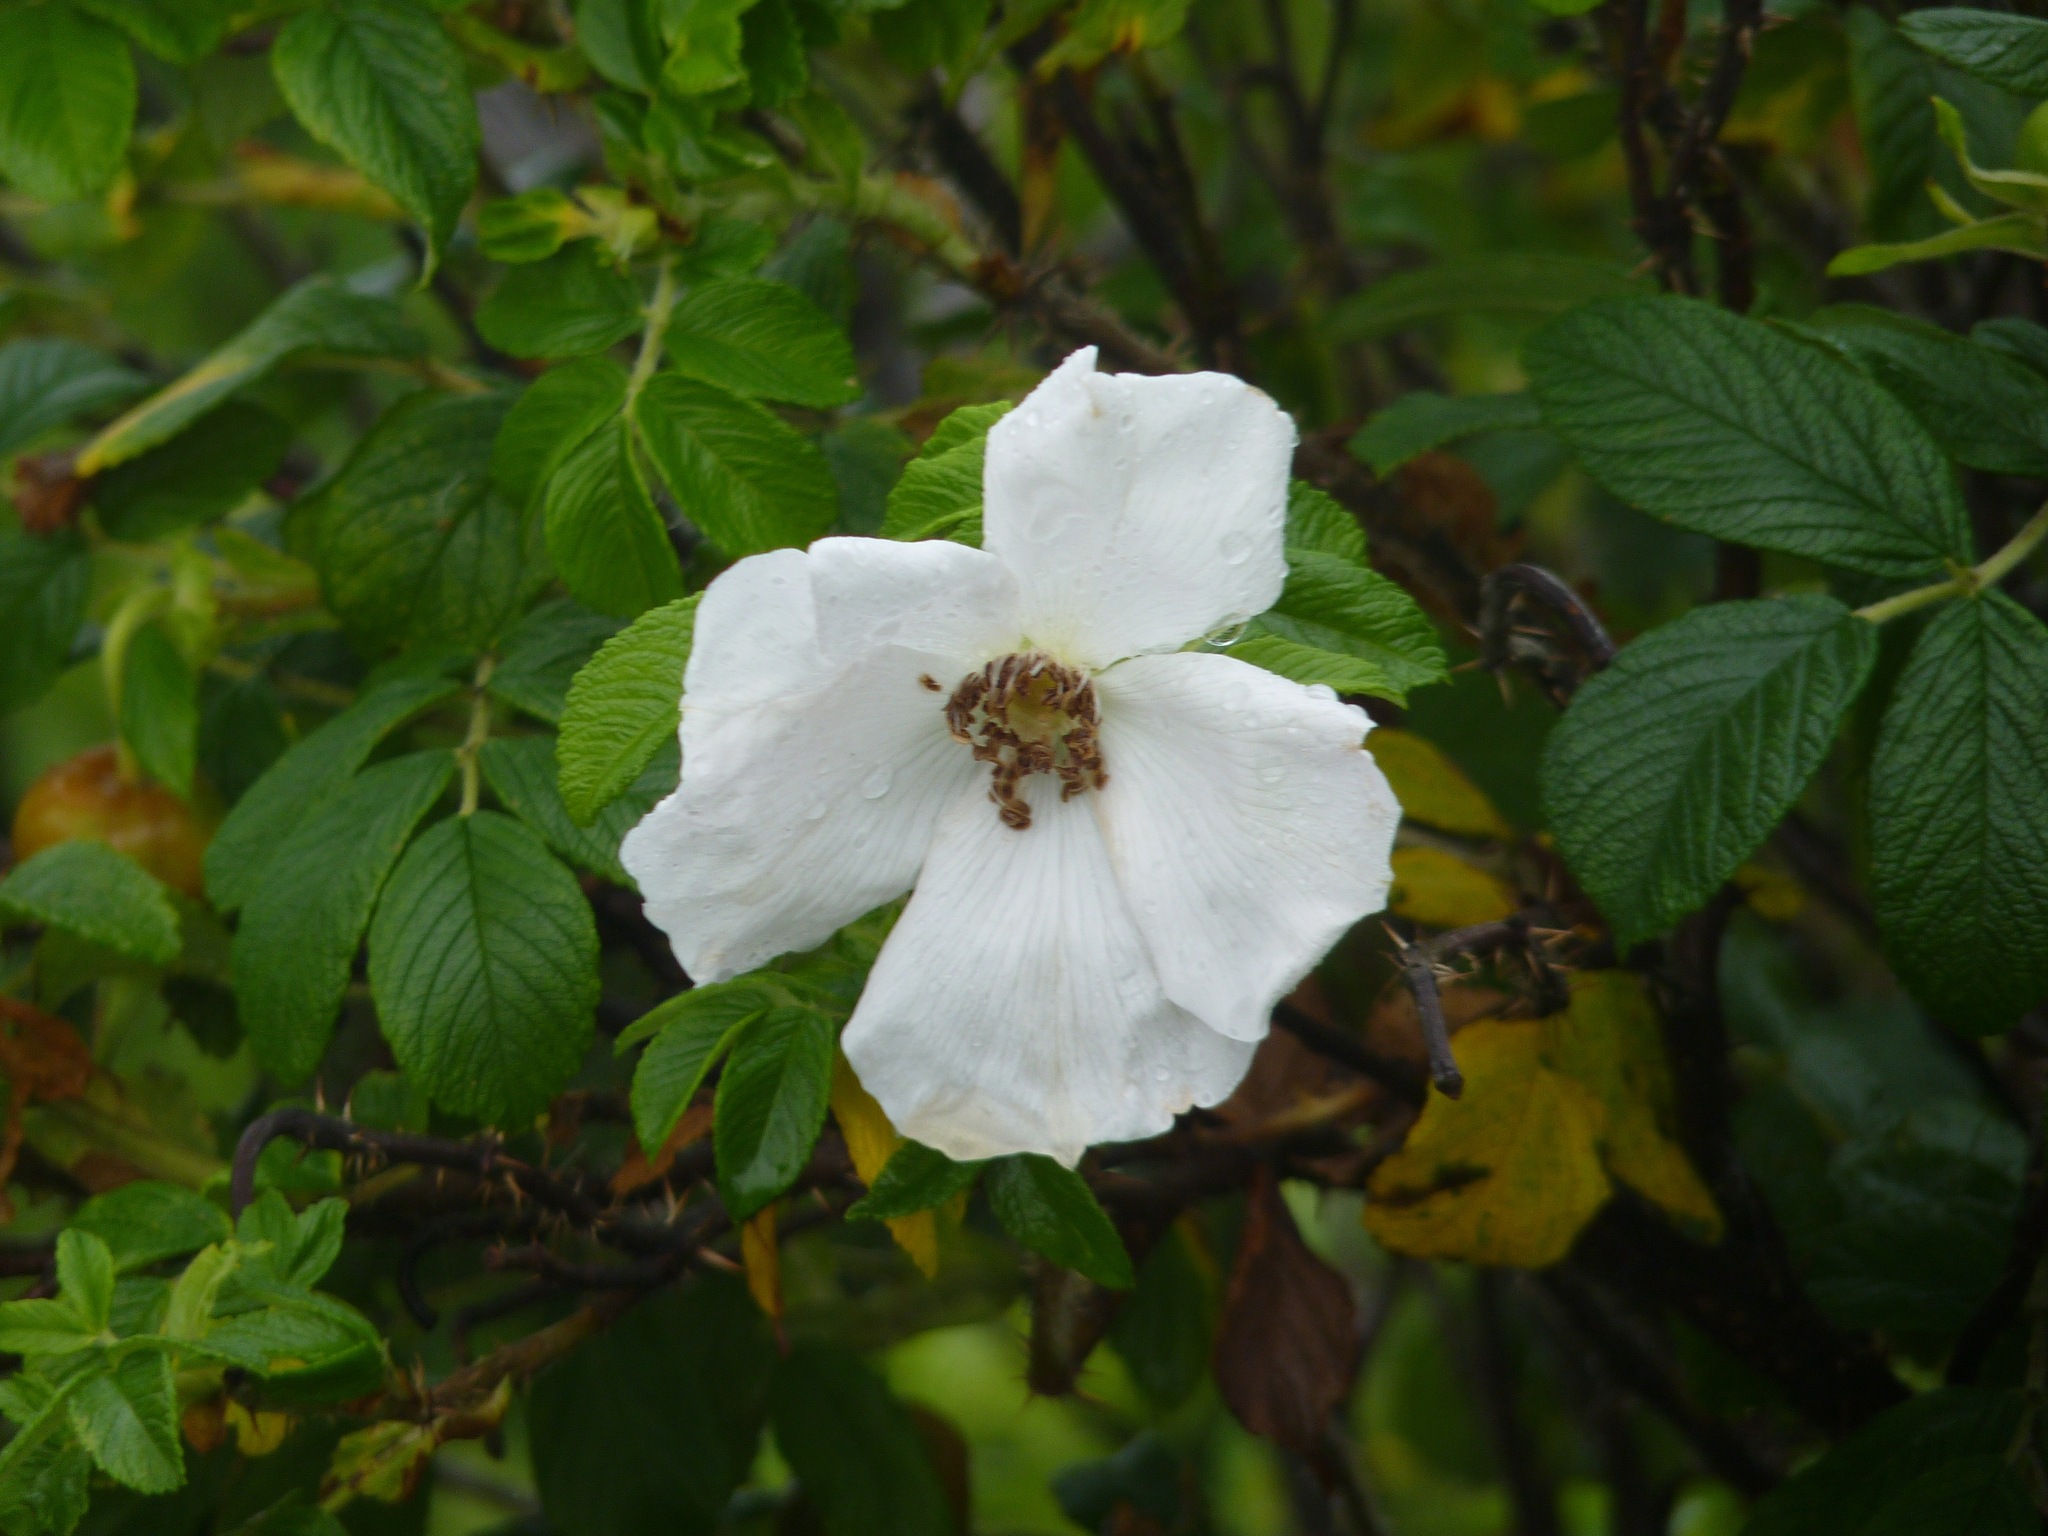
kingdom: Plantae
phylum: Tracheophyta
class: Magnoliopsida
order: Rosales
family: Rosaceae
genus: Rosa
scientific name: Rosa rugosa
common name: Japanese rose
